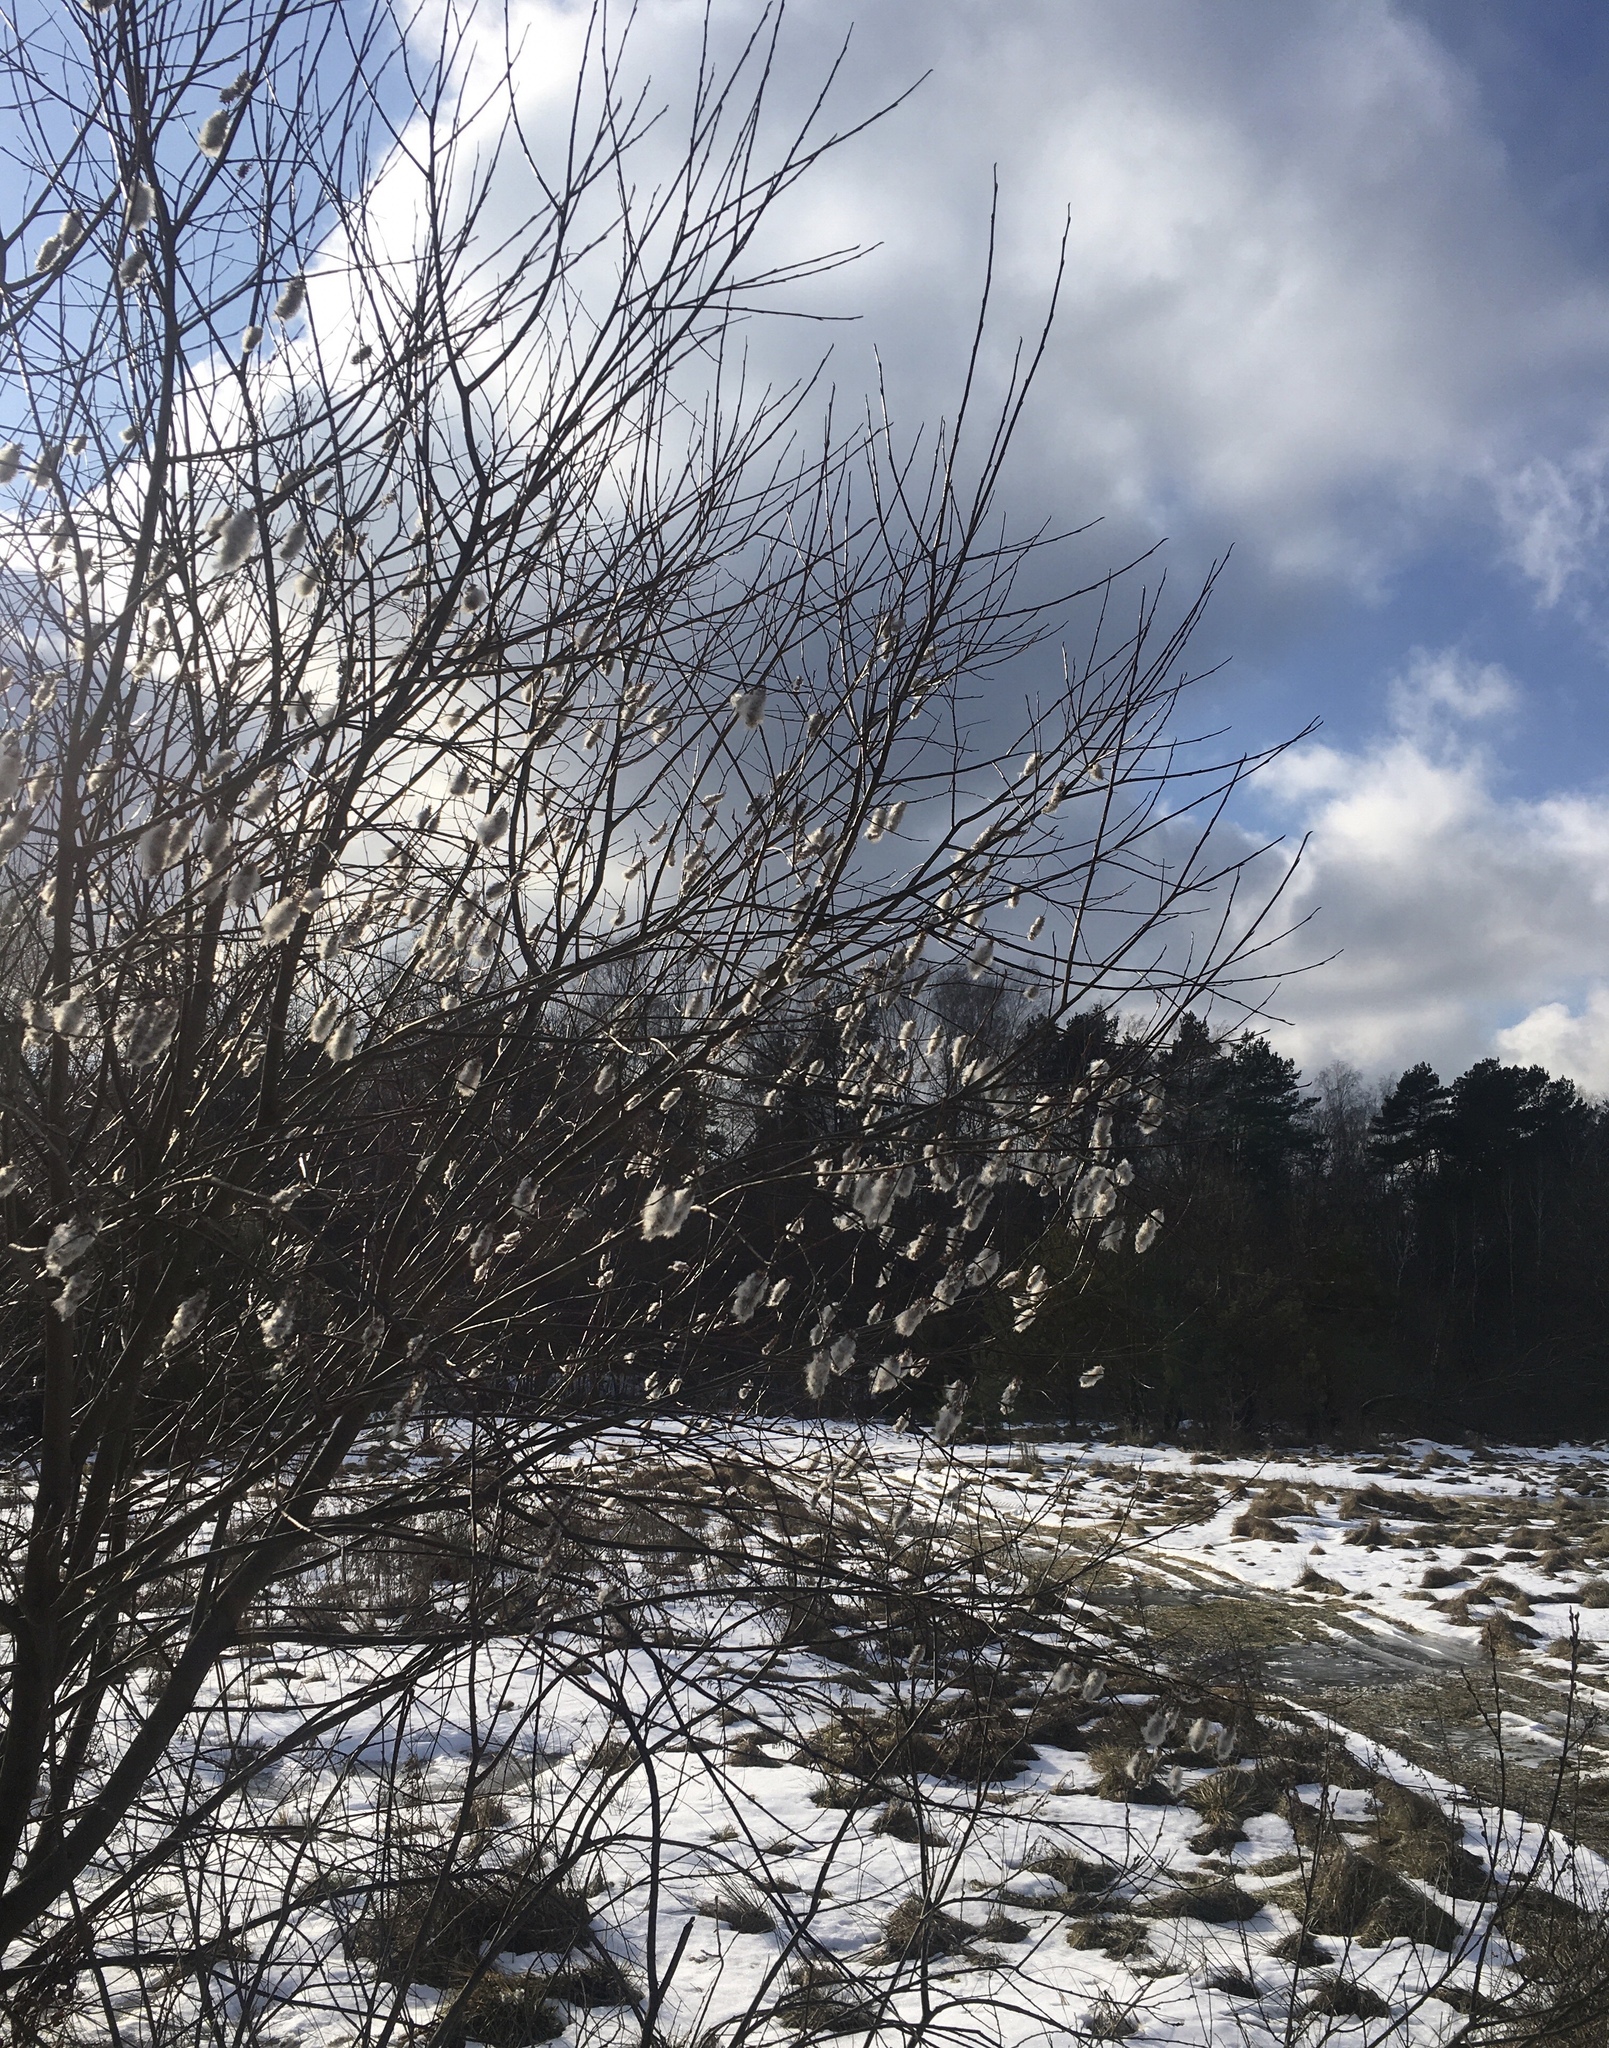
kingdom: Plantae
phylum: Tracheophyta
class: Magnoliopsida
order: Malpighiales
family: Salicaceae
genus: Salix
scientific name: Salix pentandra
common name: Bay willow
